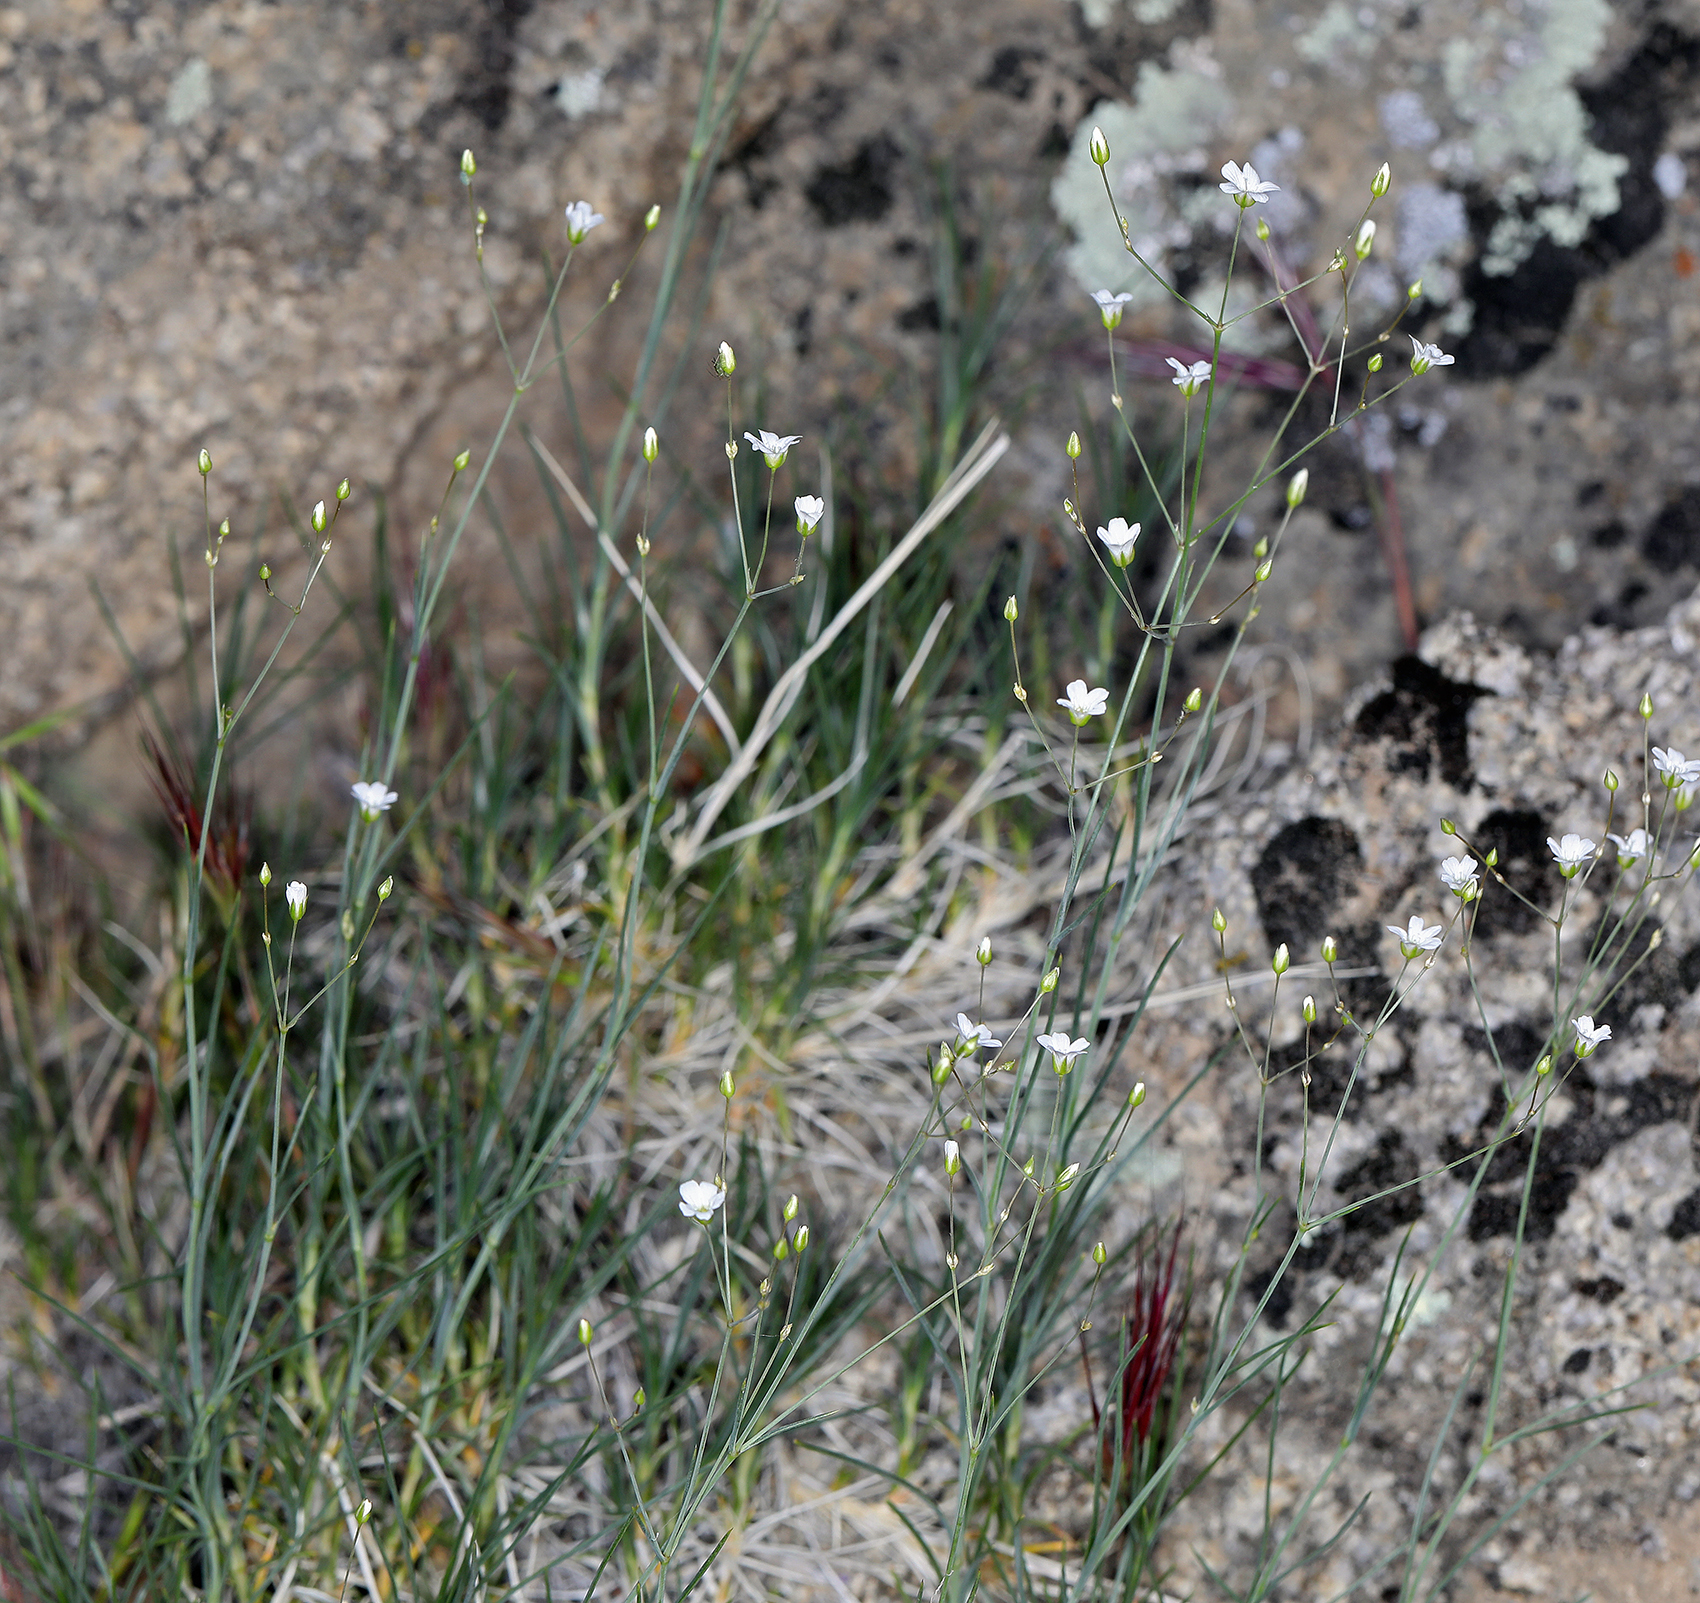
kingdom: Plantae
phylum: Tracheophyta
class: Magnoliopsida
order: Caryophyllales
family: Caryophyllaceae
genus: Eremogone
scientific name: Eremogone ferrisiae
